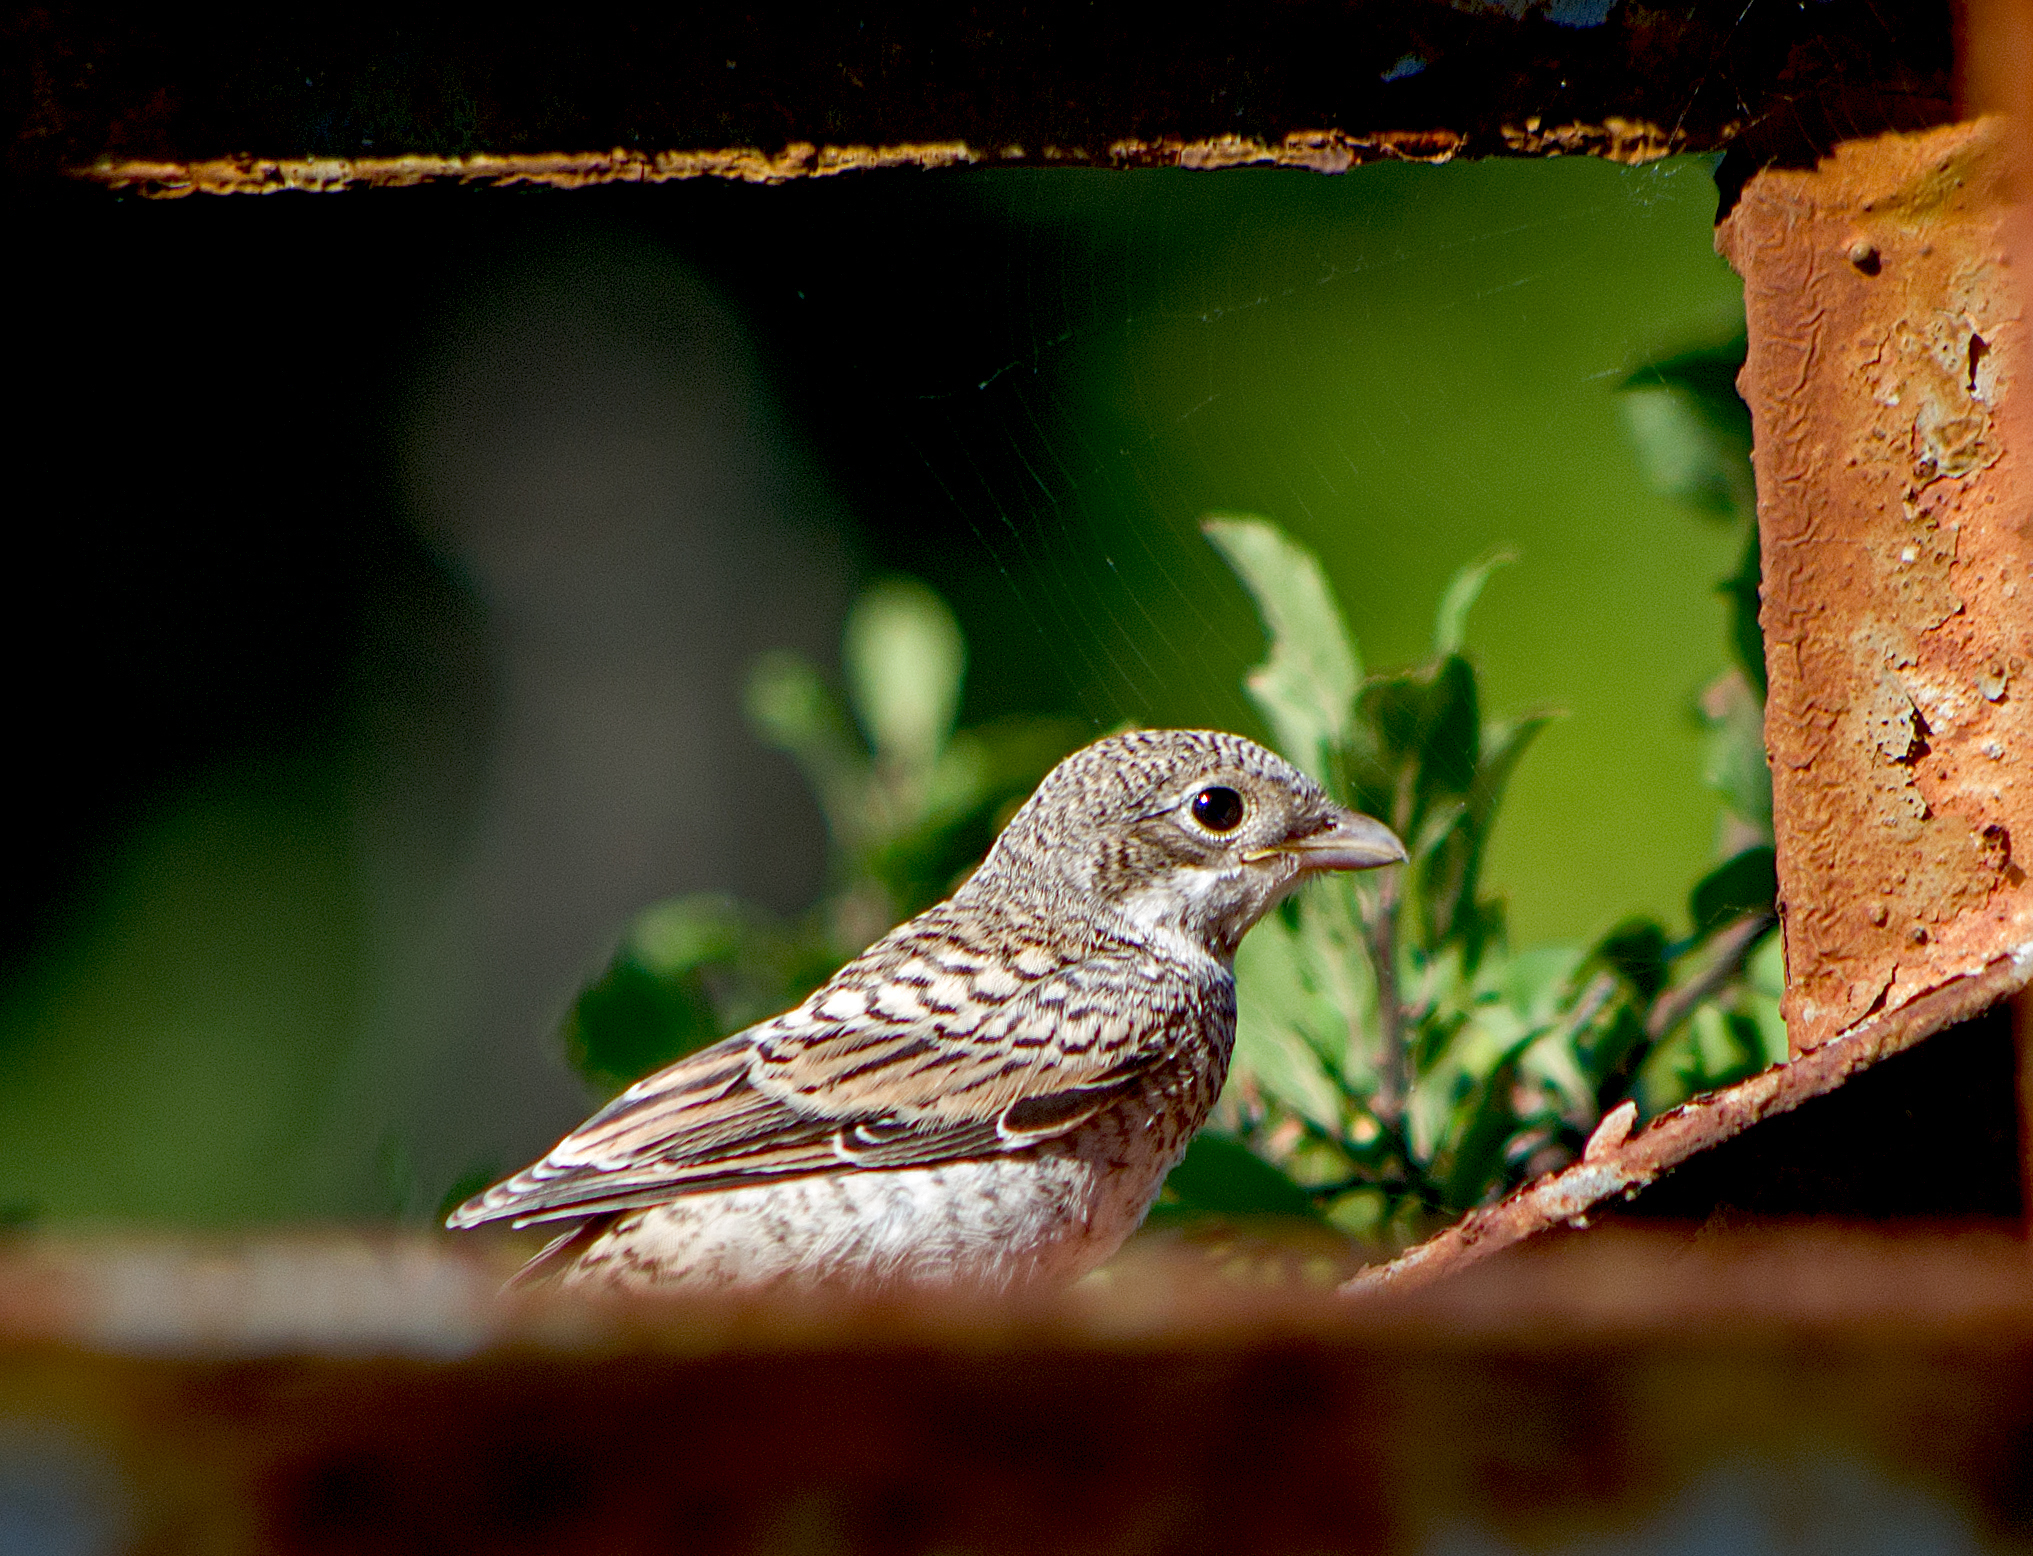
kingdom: Animalia
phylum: Chordata
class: Aves
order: Passeriformes
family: Laniidae
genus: Lanius
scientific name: Lanius senator
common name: Woodchat shrike
